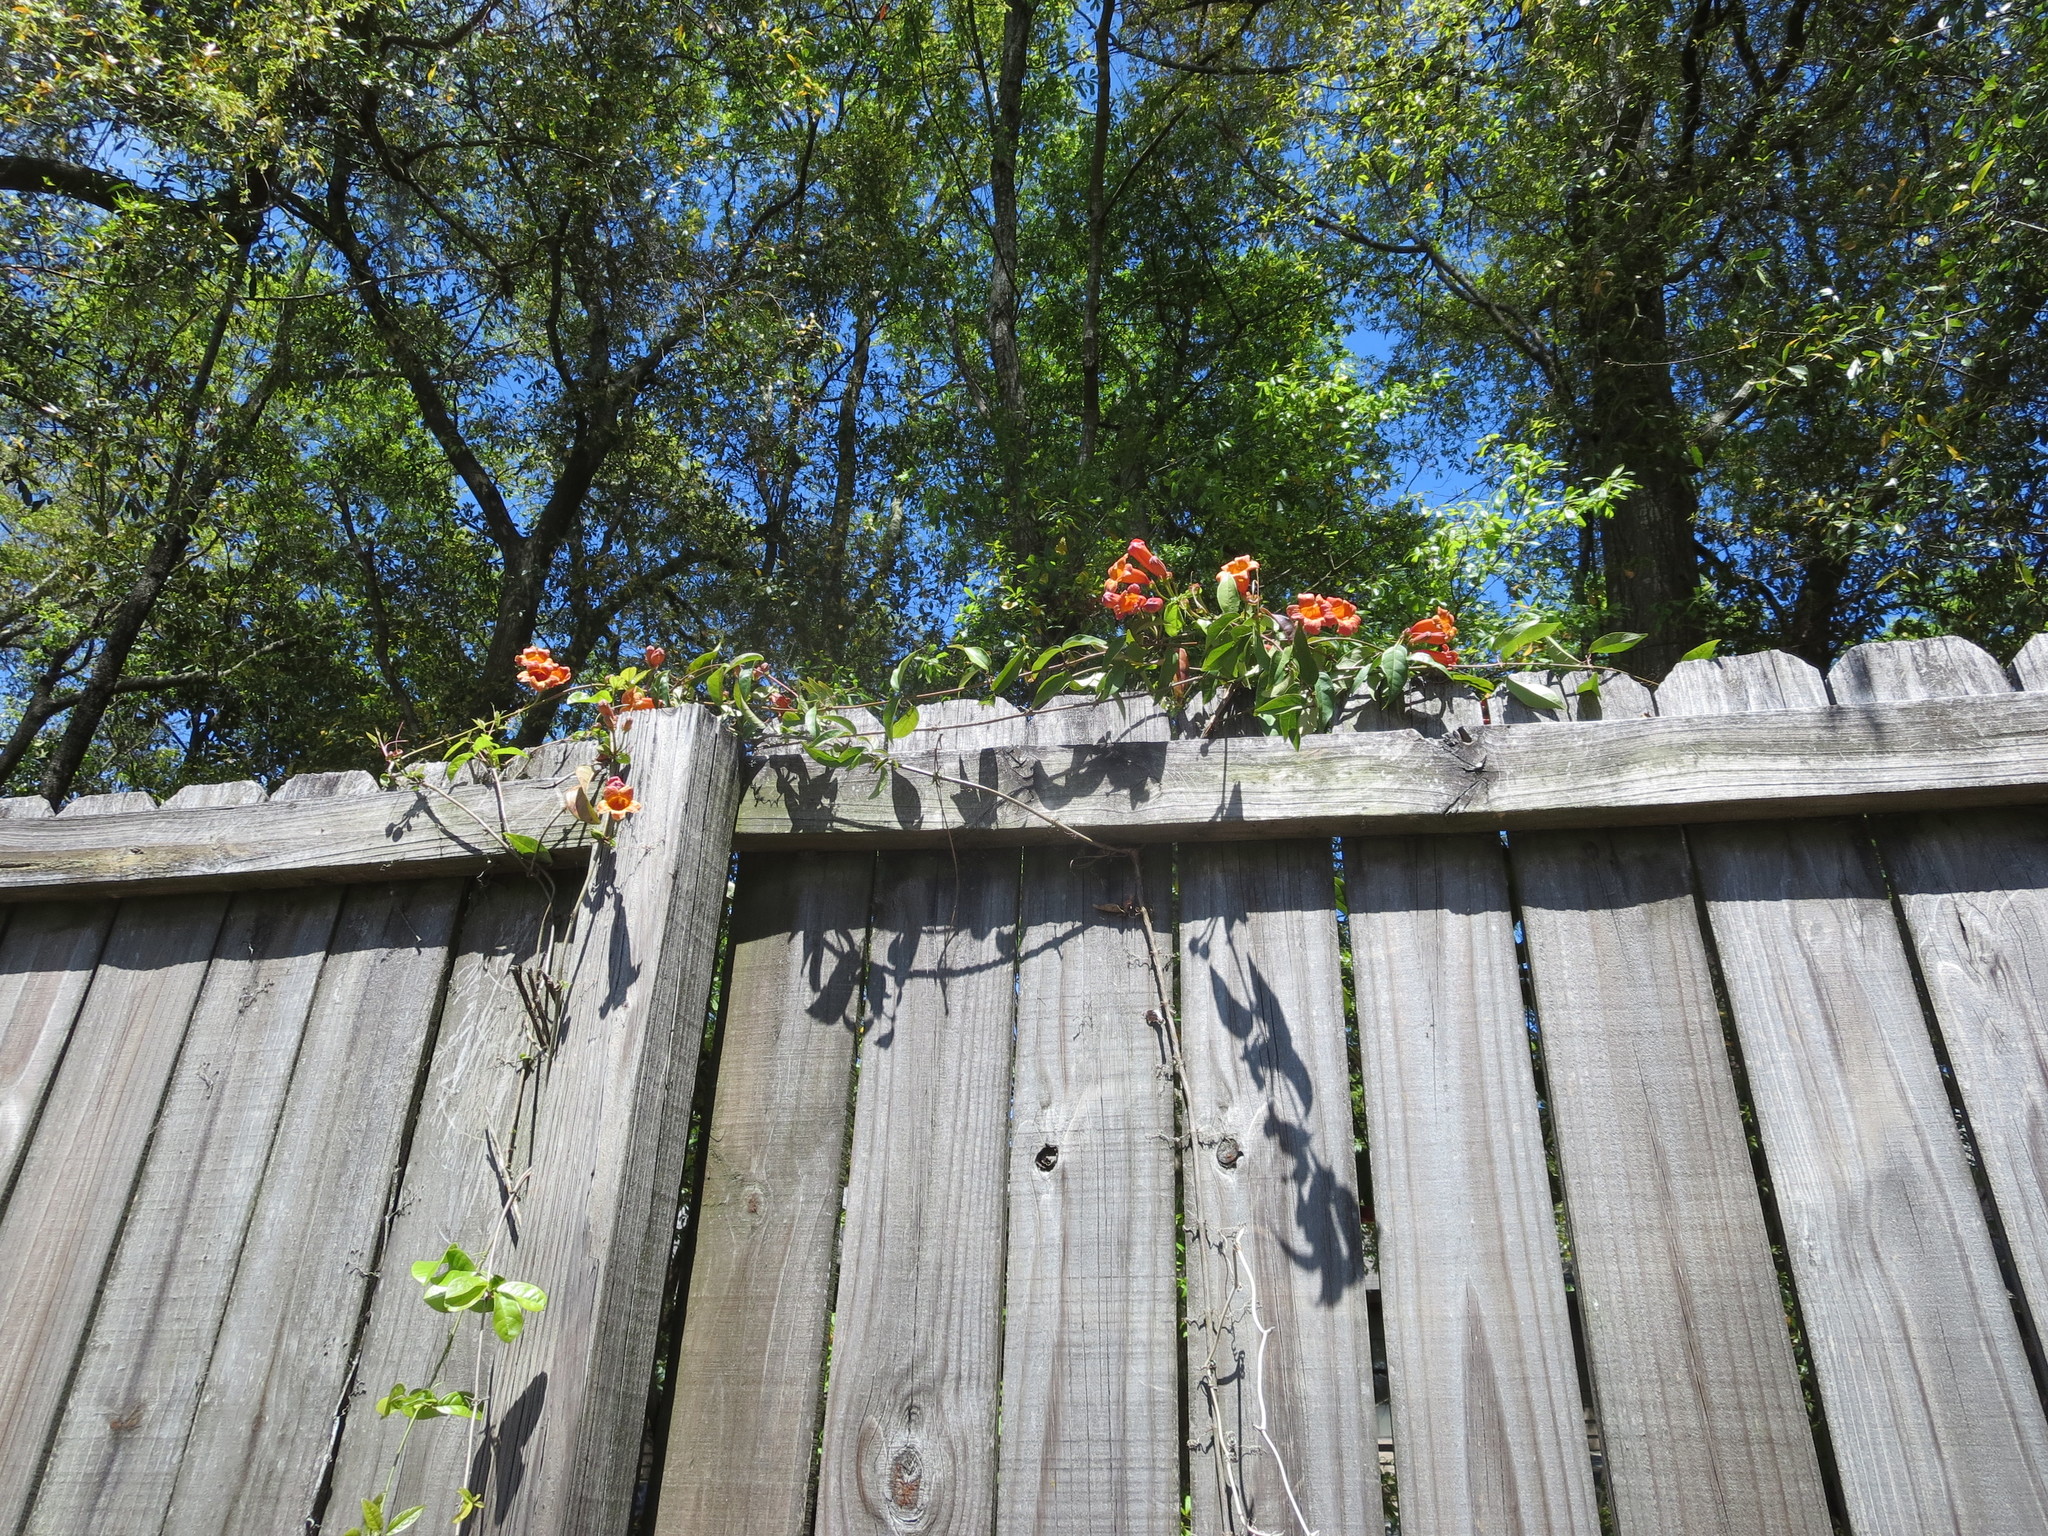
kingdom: Plantae
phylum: Tracheophyta
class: Magnoliopsida
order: Lamiales
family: Bignoniaceae
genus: Bignonia
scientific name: Bignonia capreolata
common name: Crossvine
